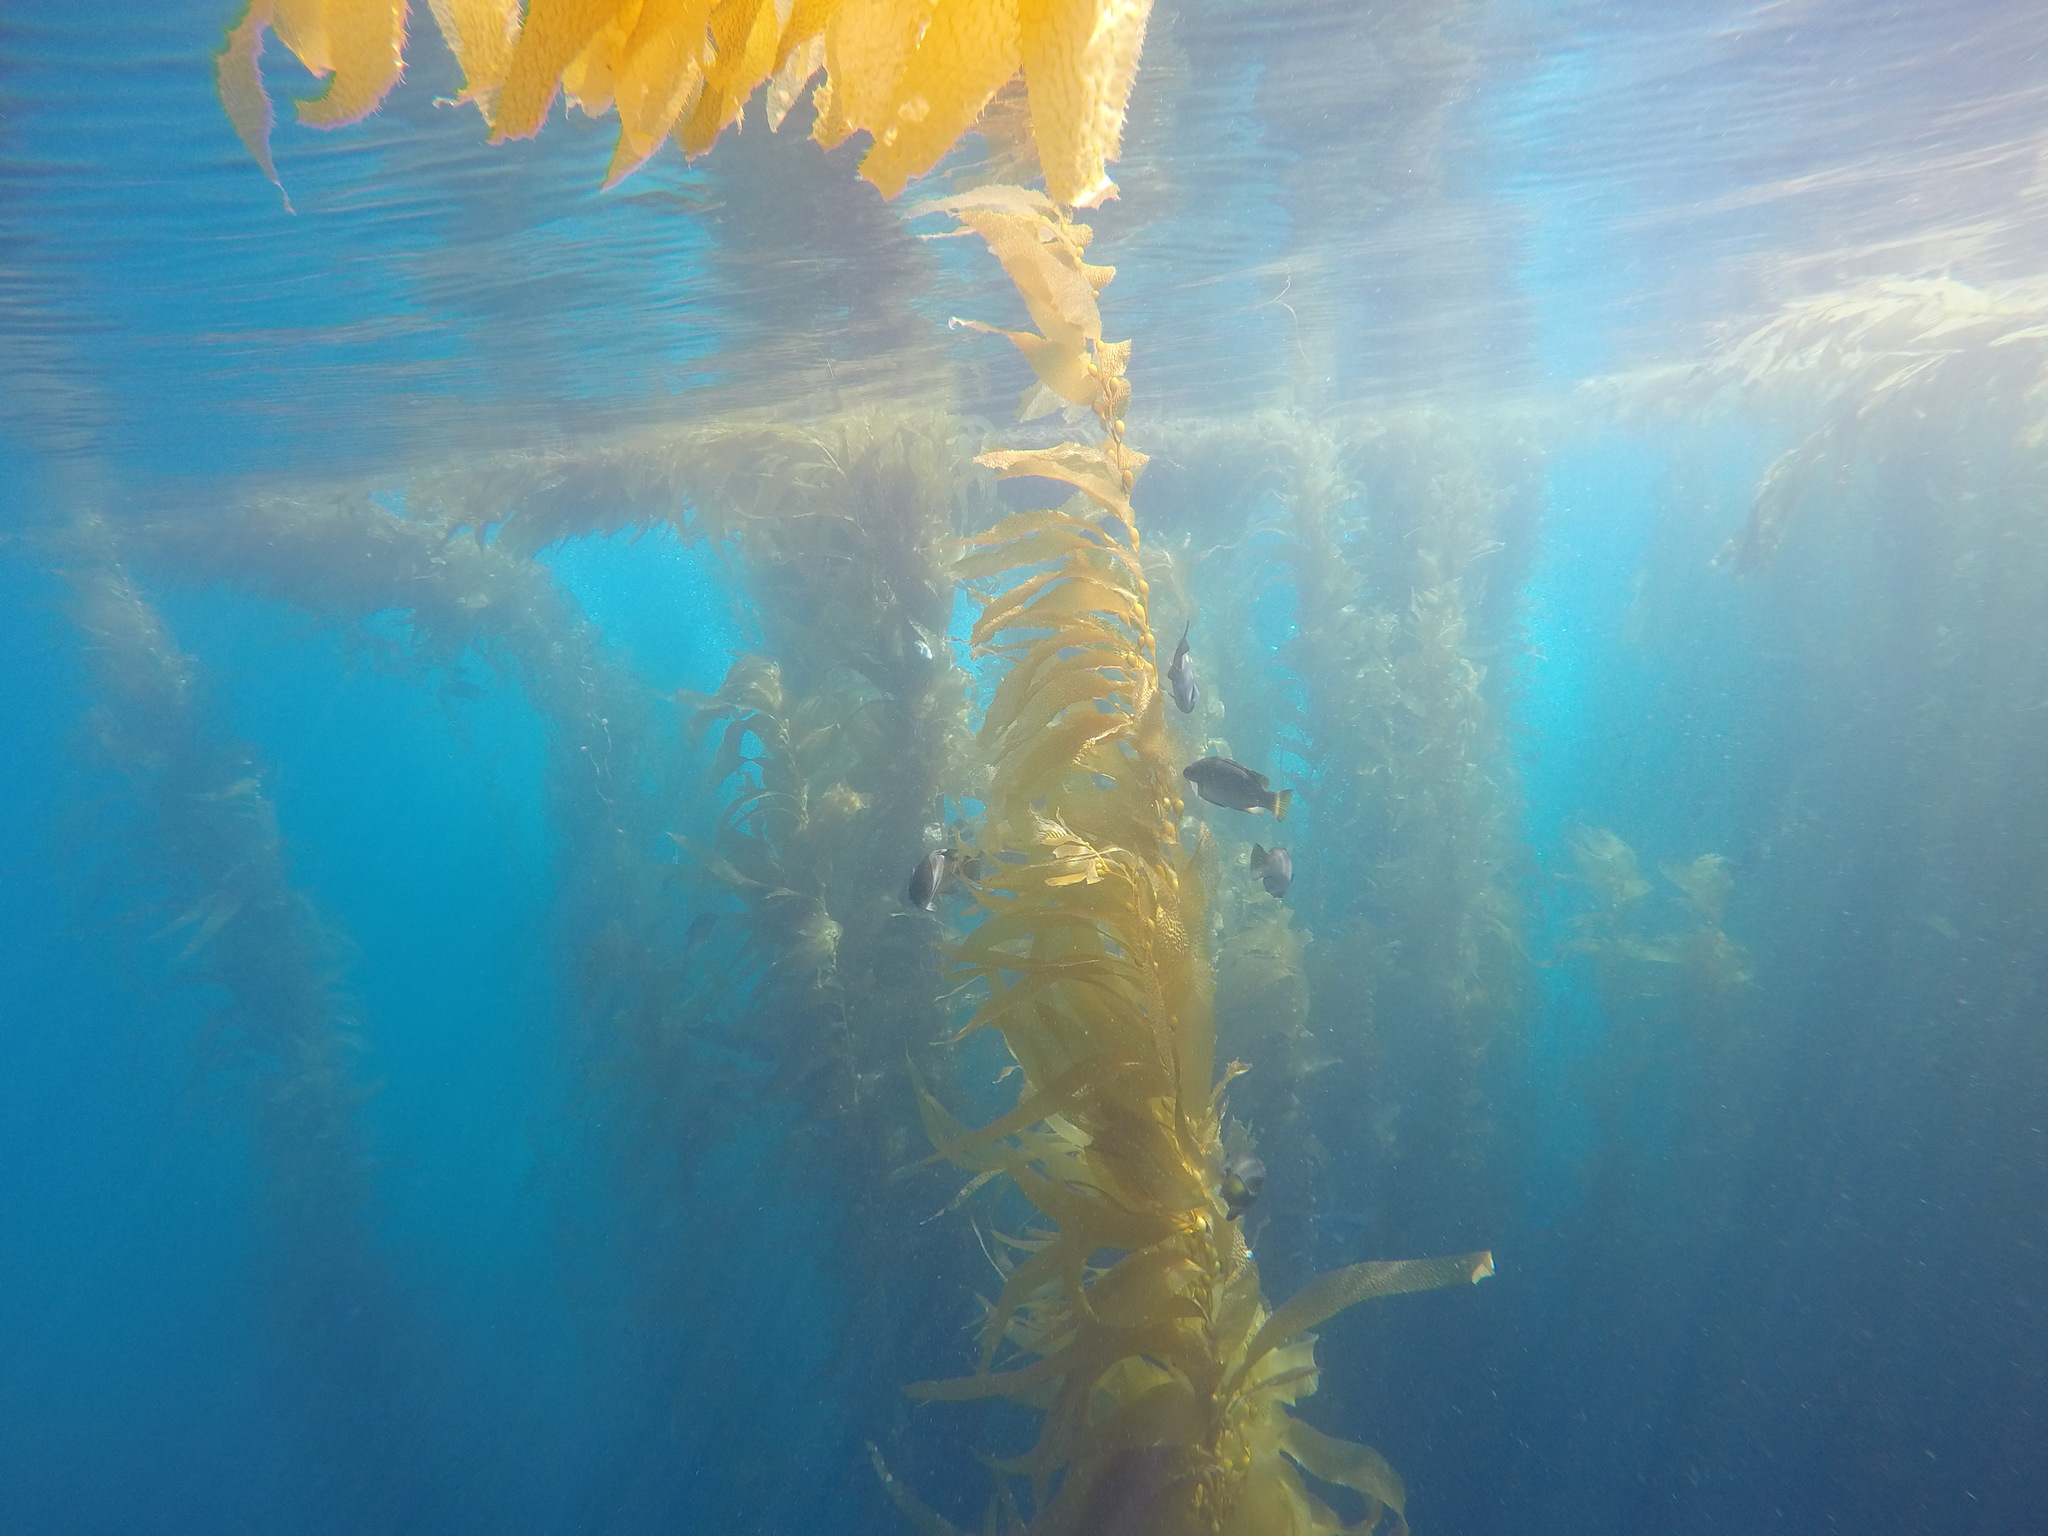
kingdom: Chromista
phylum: Ochrophyta
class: Phaeophyceae
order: Laminariales
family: Laminariaceae
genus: Macrocystis
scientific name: Macrocystis pyrifera
